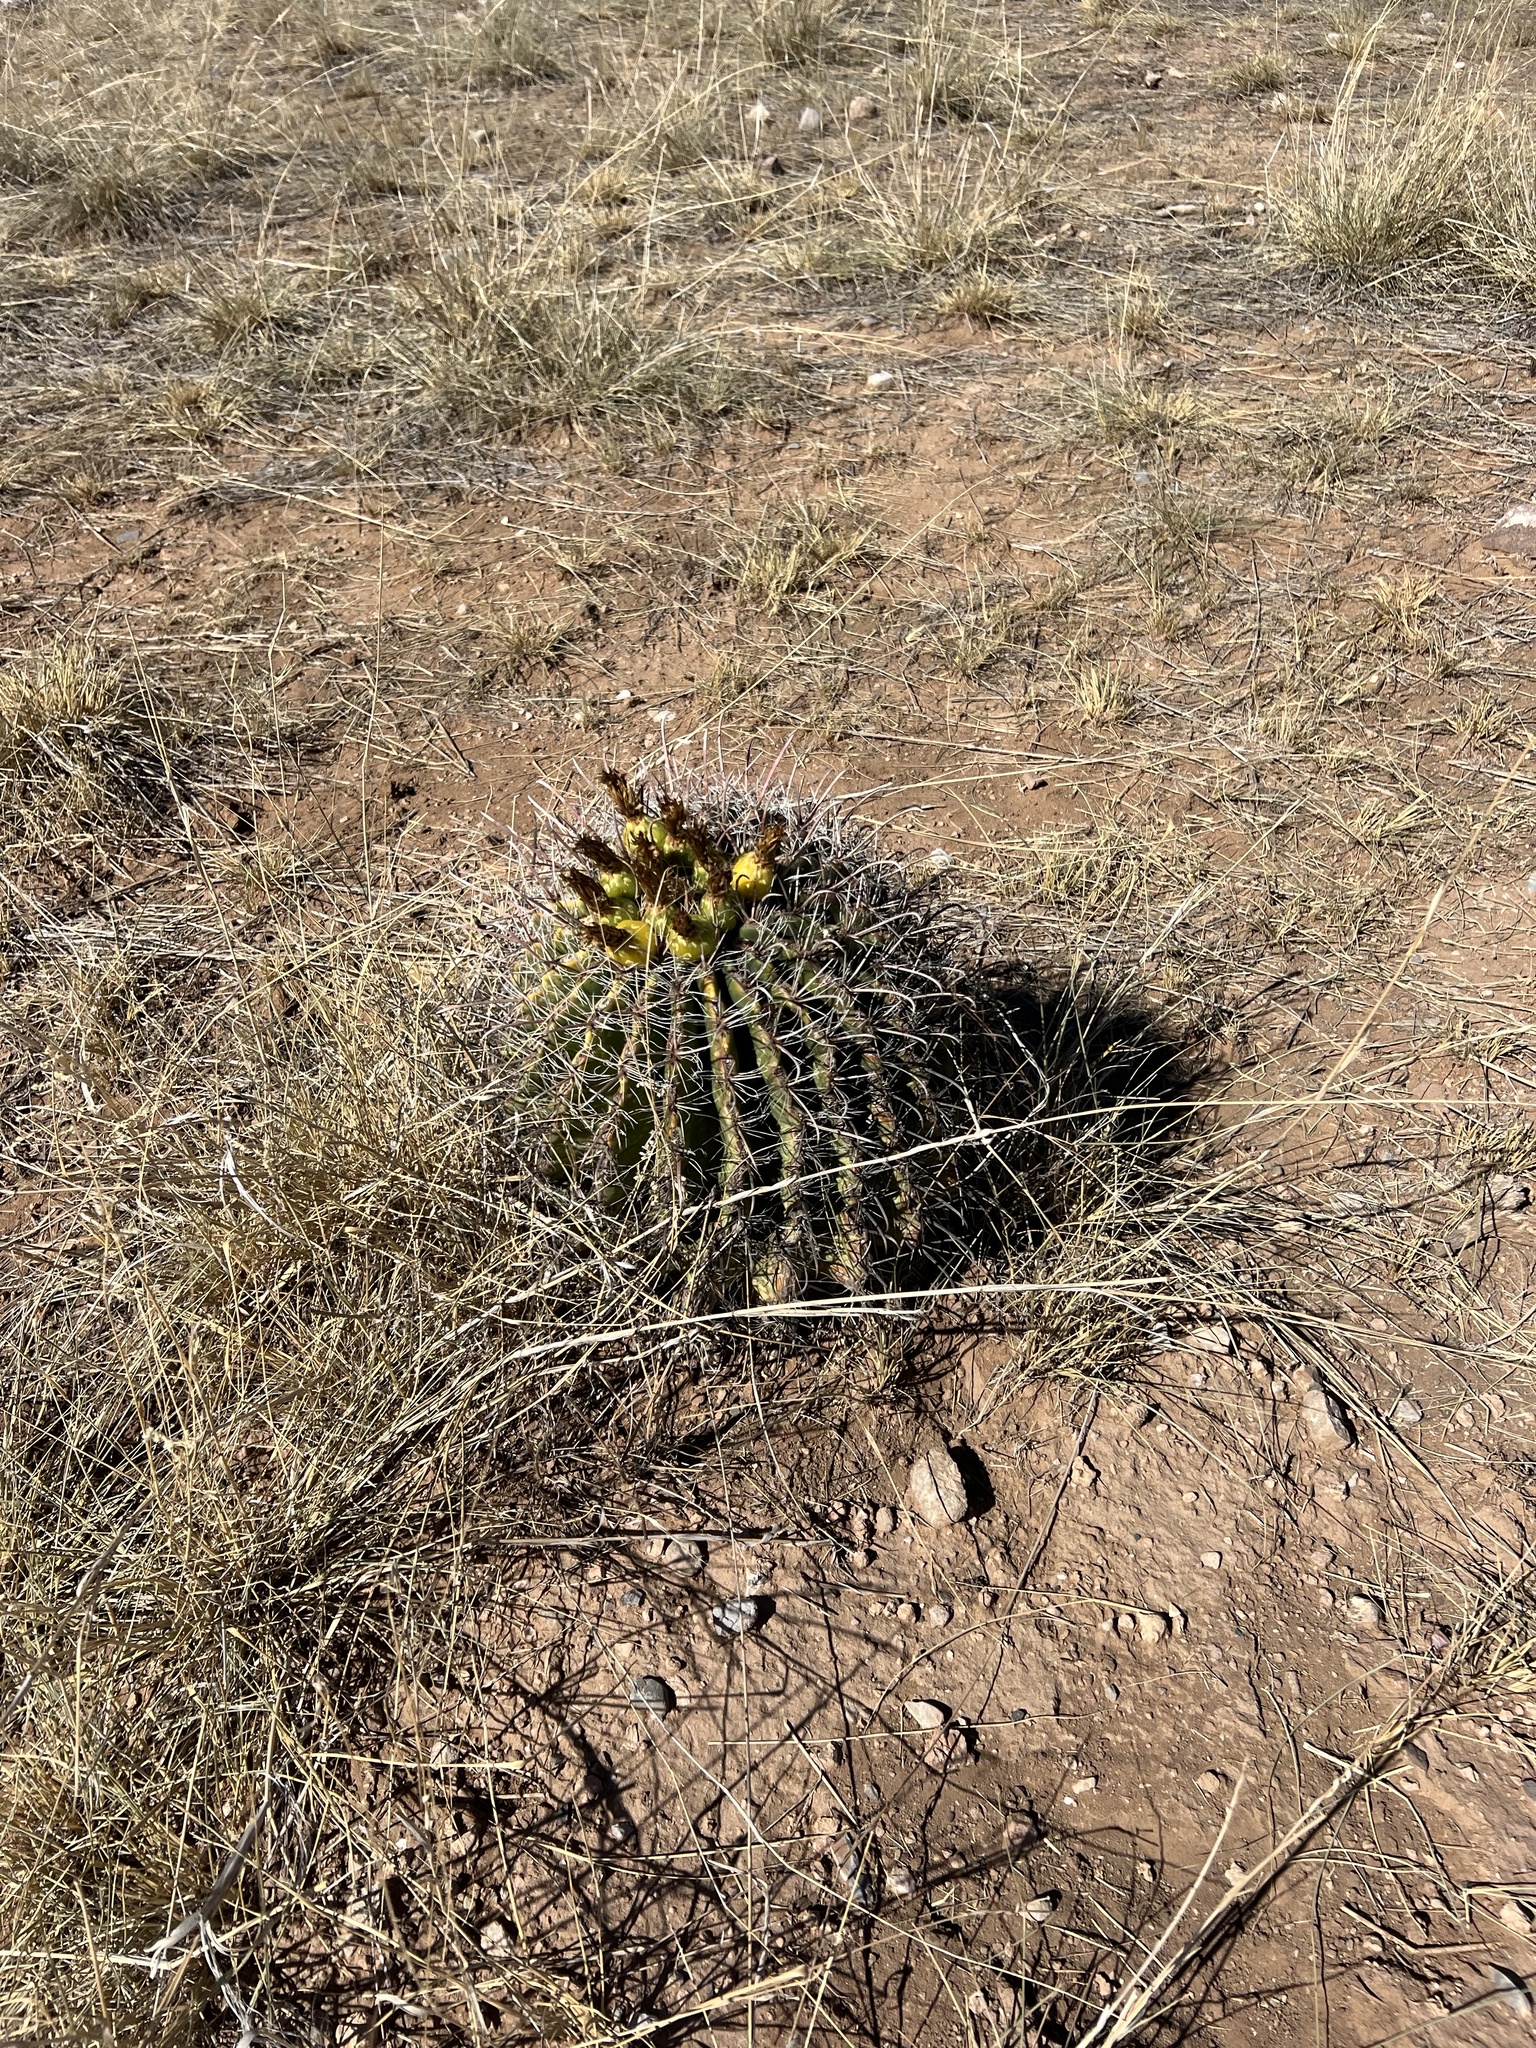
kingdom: Plantae
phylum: Tracheophyta
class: Magnoliopsida
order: Caryophyllales
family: Cactaceae
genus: Ferocactus
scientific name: Ferocactus wislizeni
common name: Candy barrel cactus
